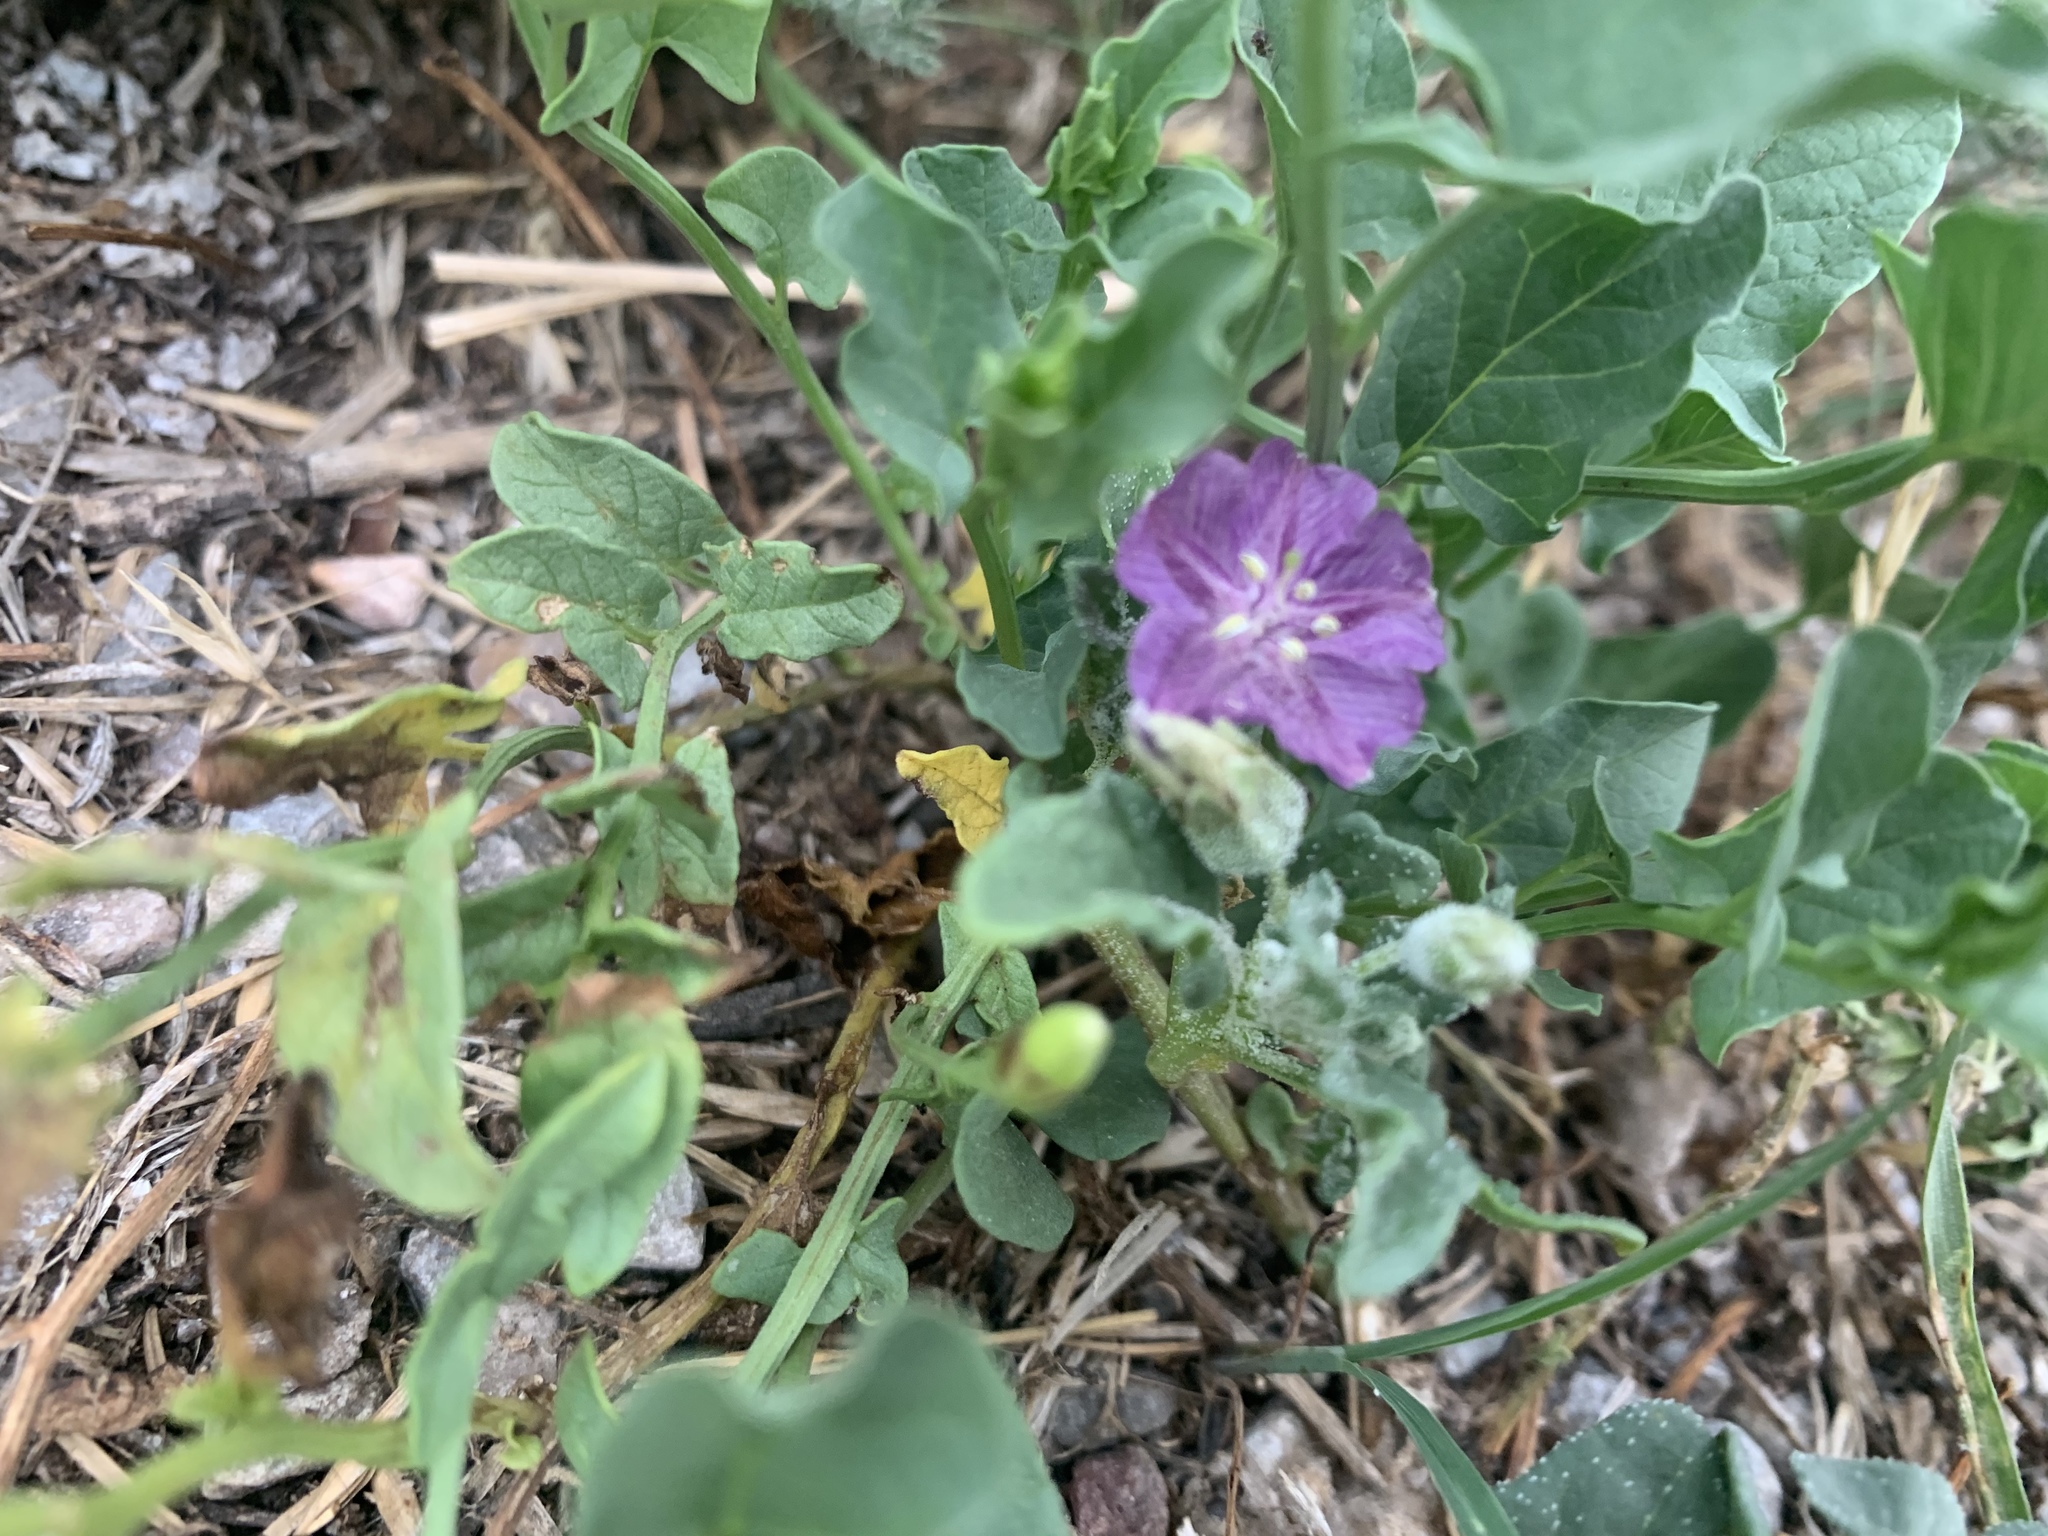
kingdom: Plantae
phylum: Tracheophyta
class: Magnoliopsida
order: Solanales
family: Solanaceae
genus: Quincula
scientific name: Quincula lobata
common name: Purple-ground-cherry
